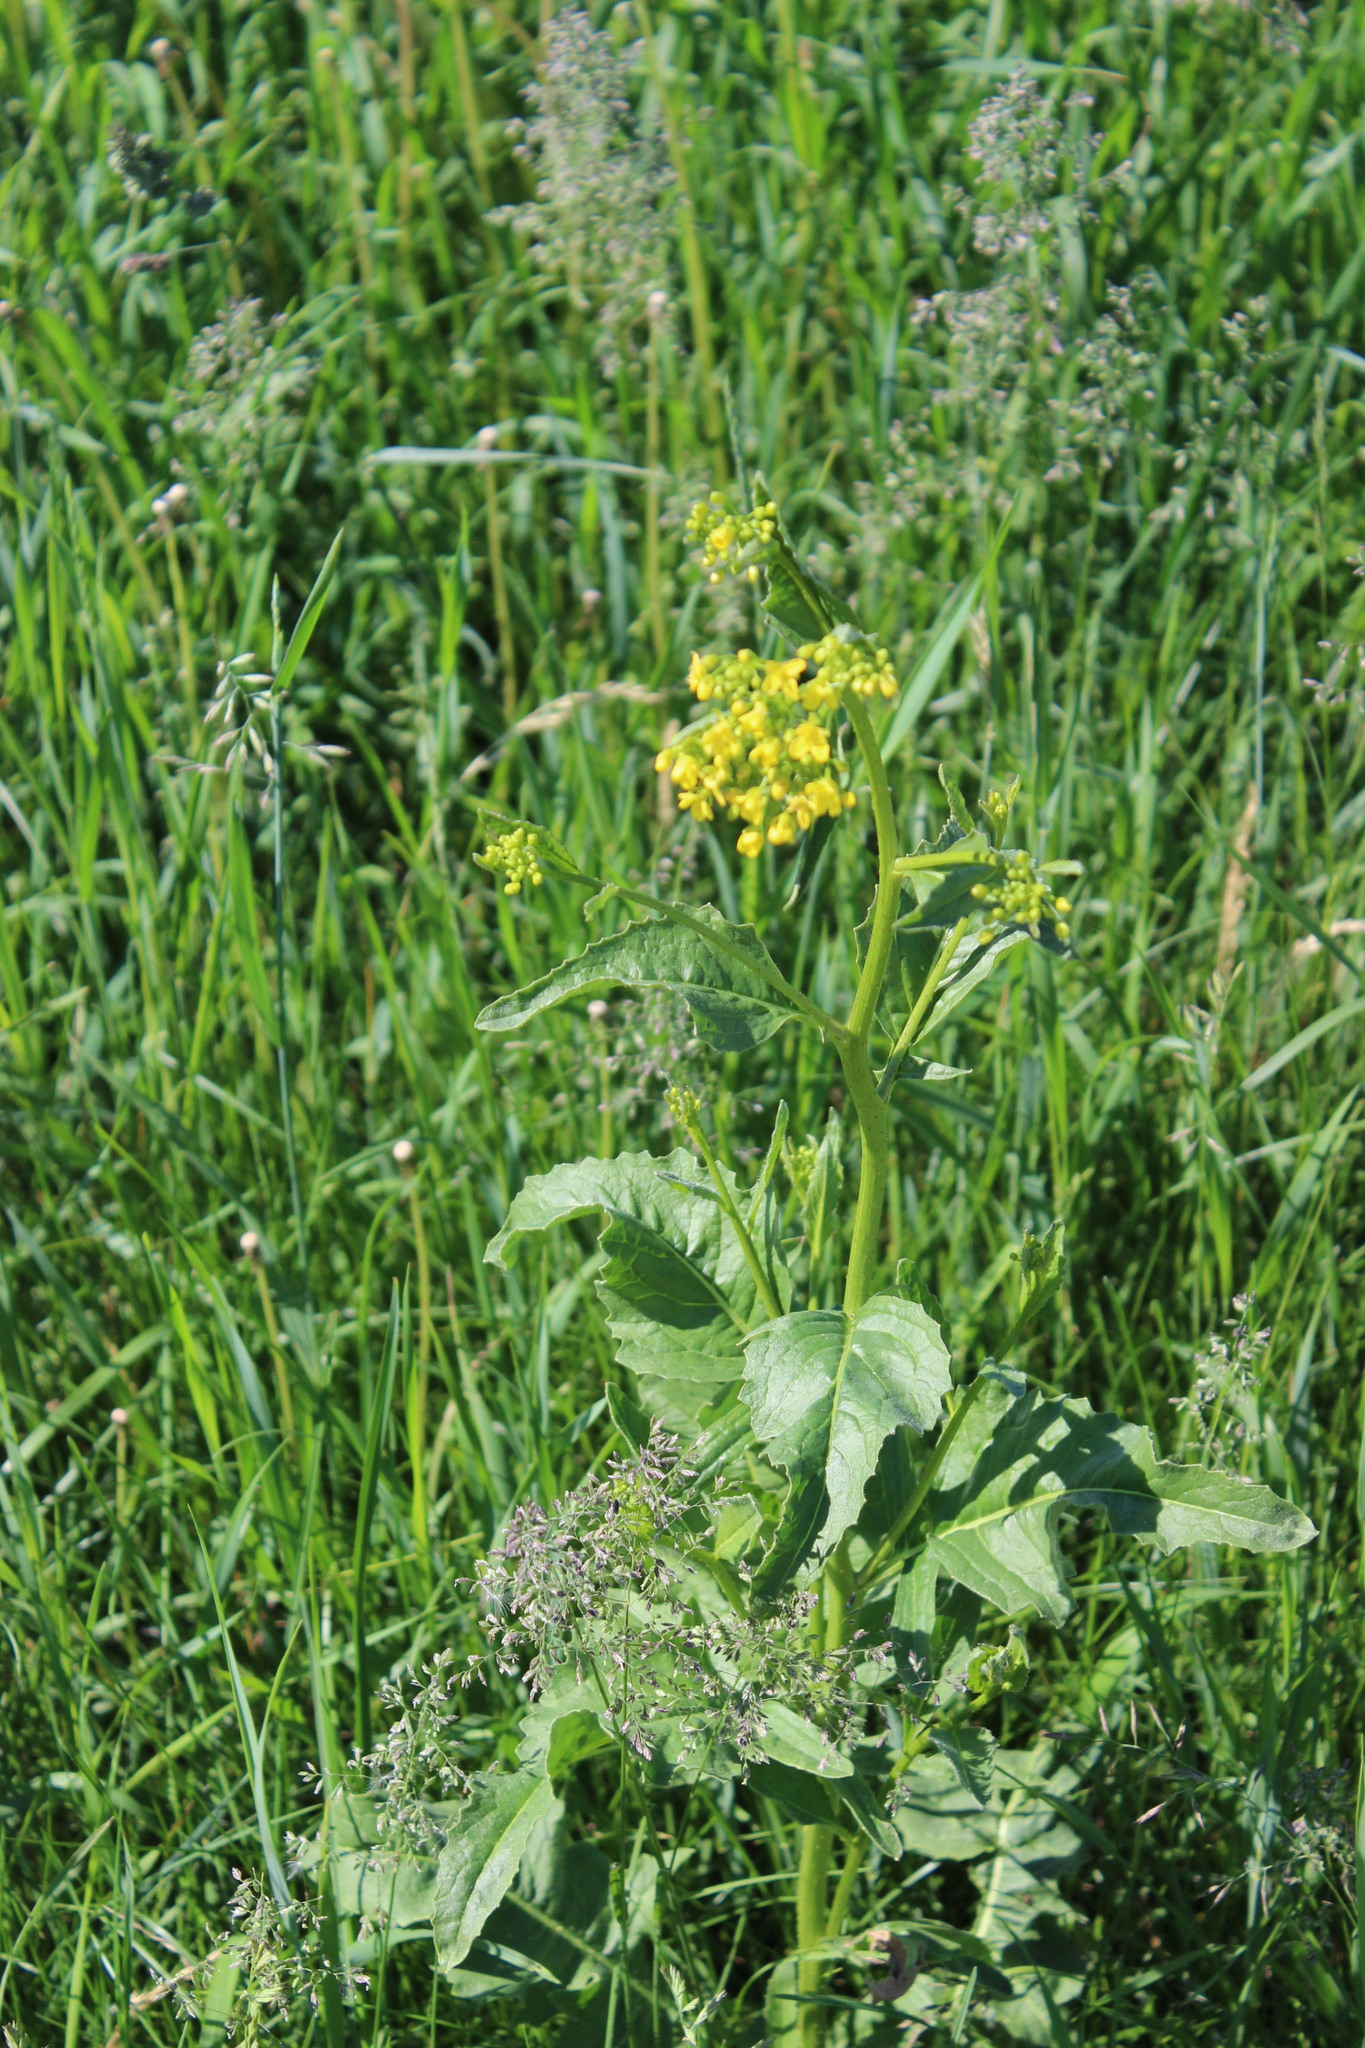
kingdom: Plantae
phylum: Tracheophyta
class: Magnoliopsida
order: Brassicales
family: Brassicaceae
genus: Bunias
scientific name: Bunias orientalis
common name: Warty-cabbage
